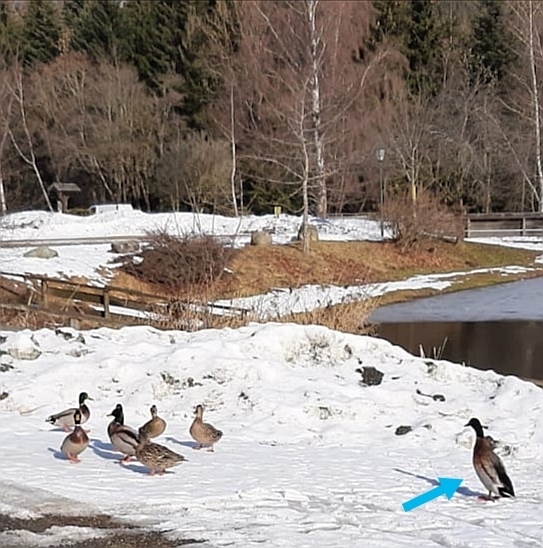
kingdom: Animalia
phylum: Chordata
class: Aves
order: Anseriformes
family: Anatidae
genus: Anas
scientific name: Anas platyrhynchos
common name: Mallard
